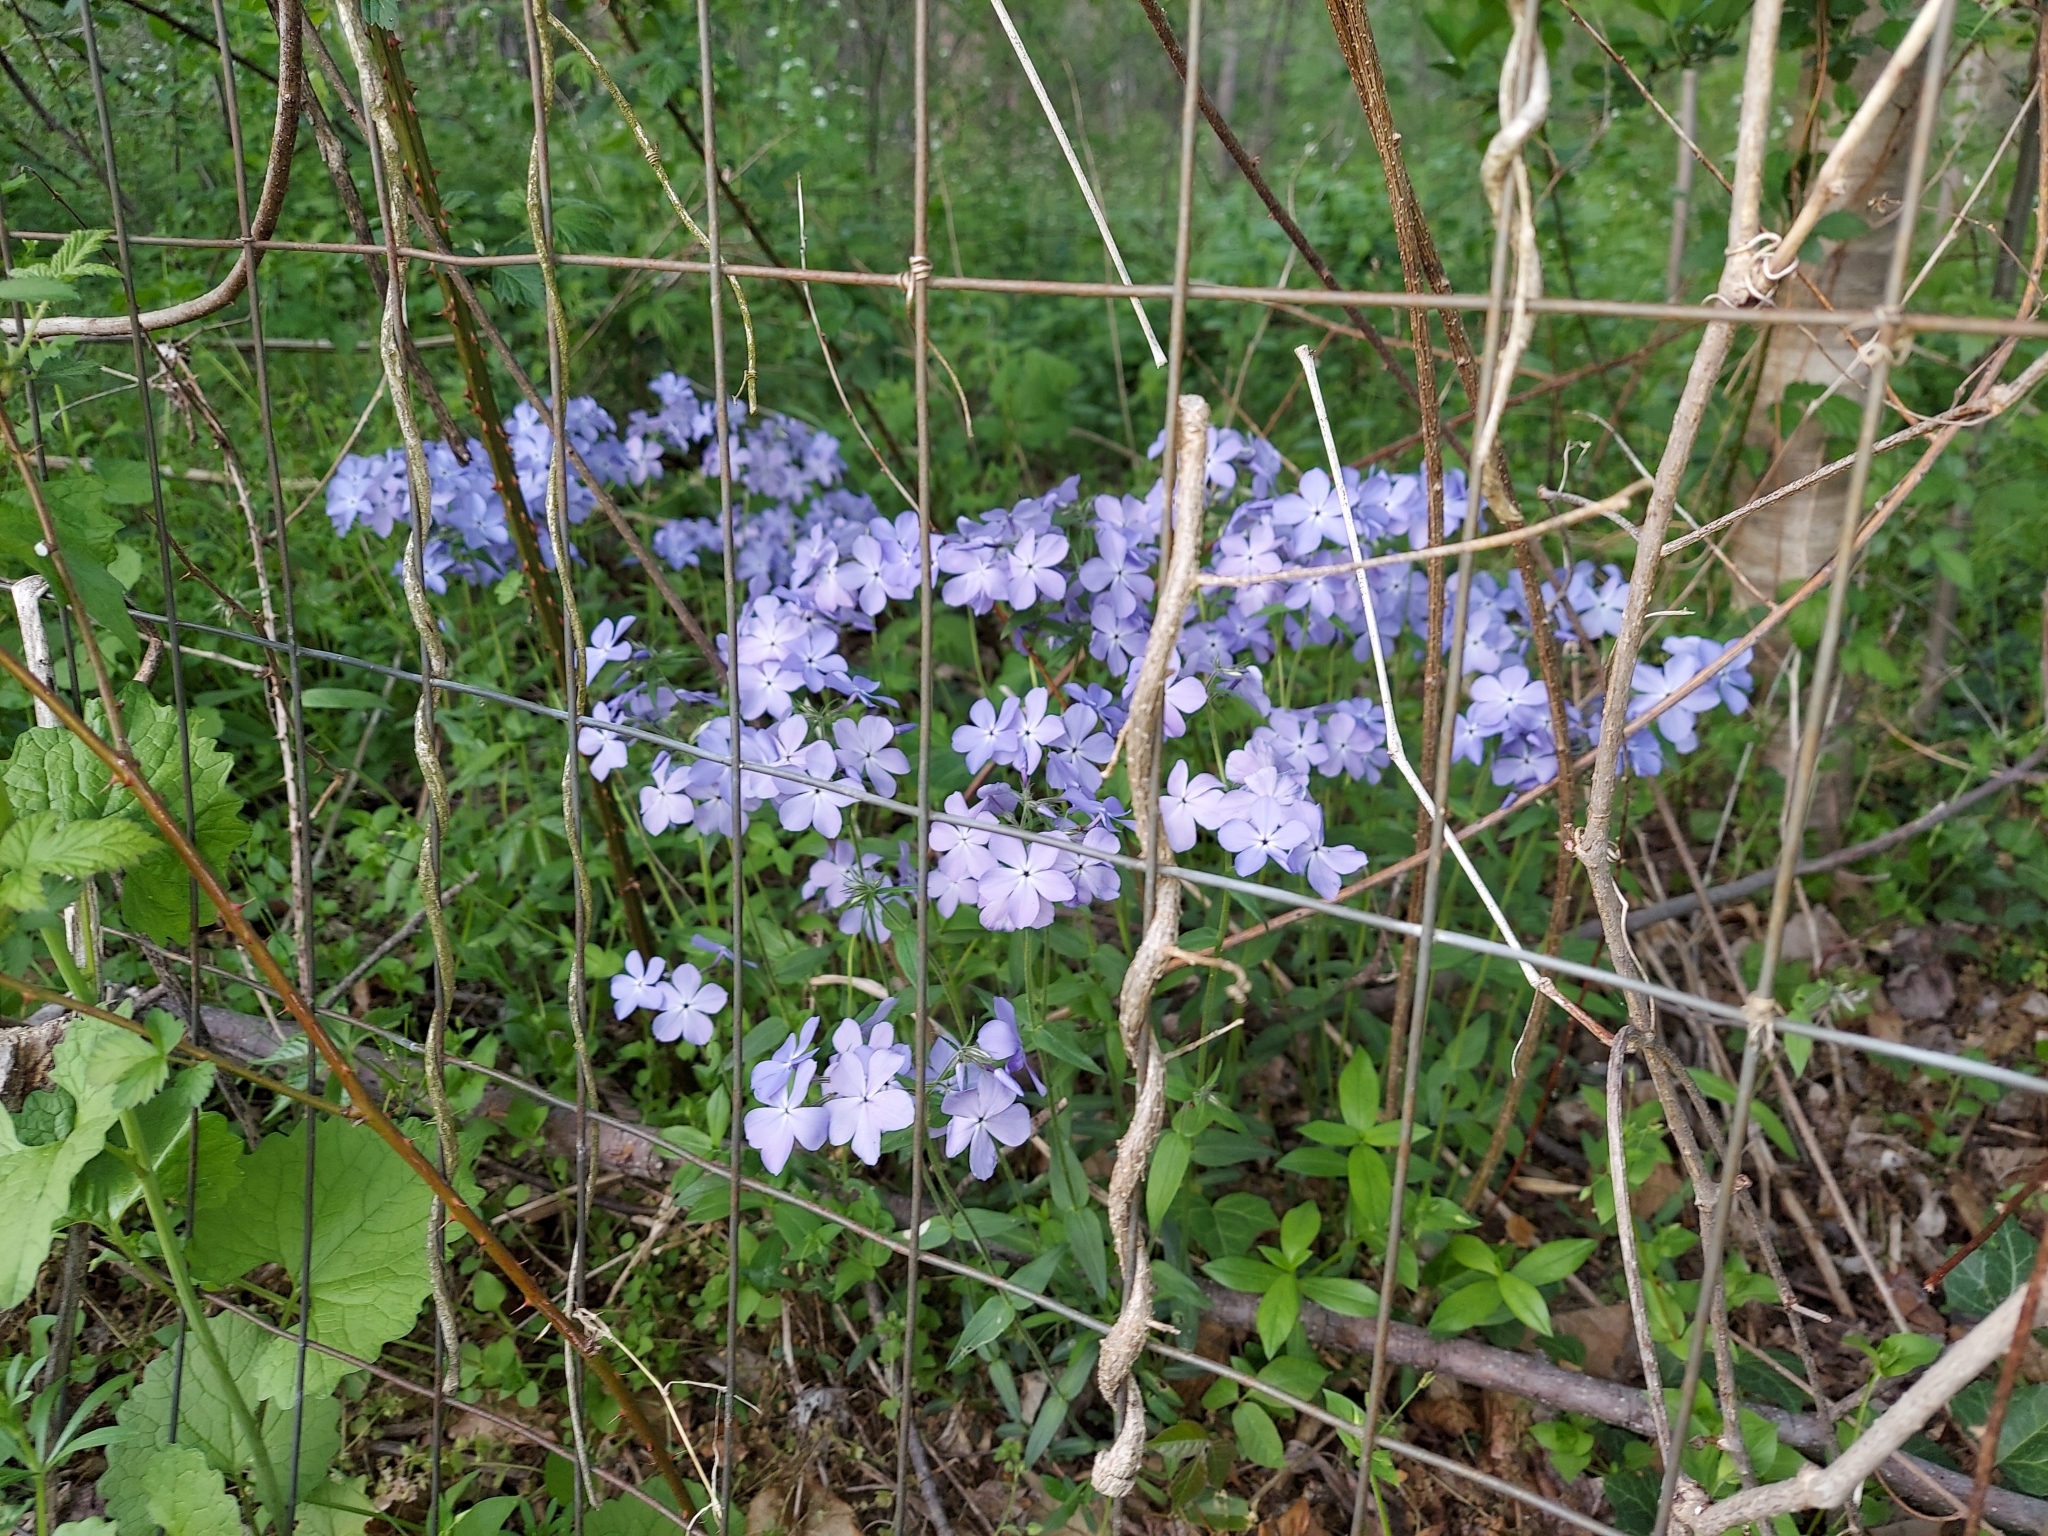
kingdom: Plantae
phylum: Tracheophyta
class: Magnoliopsida
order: Ericales
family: Polemoniaceae
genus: Phlox
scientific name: Phlox divaricata
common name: Blue phlox
